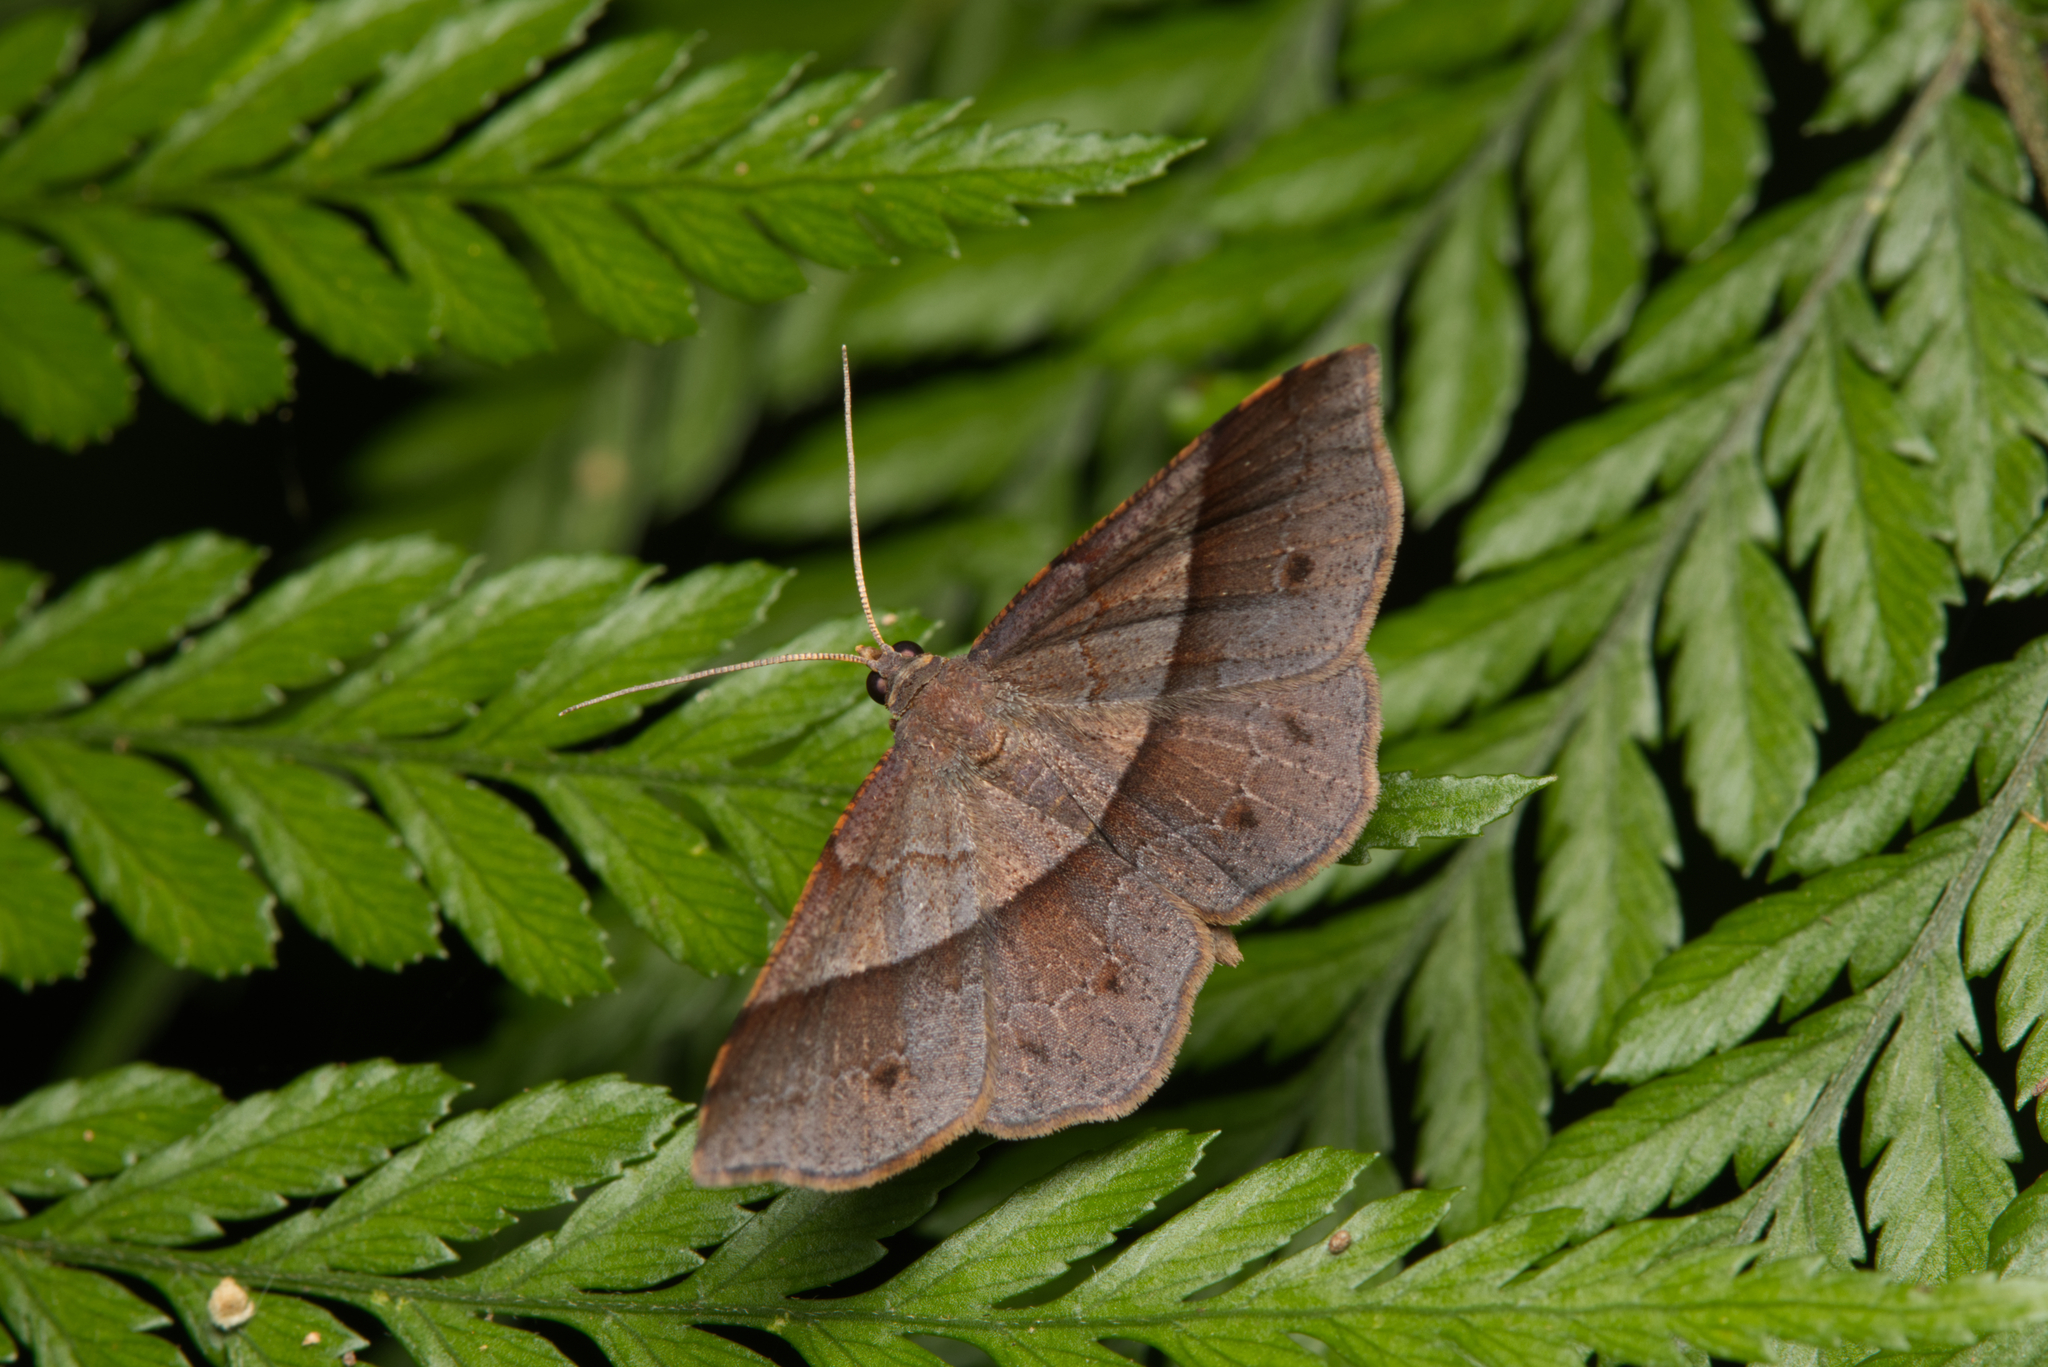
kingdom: Animalia
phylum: Arthropoda
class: Insecta
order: Lepidoptera
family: Geometridae
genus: Urostola
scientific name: Urostola magica
